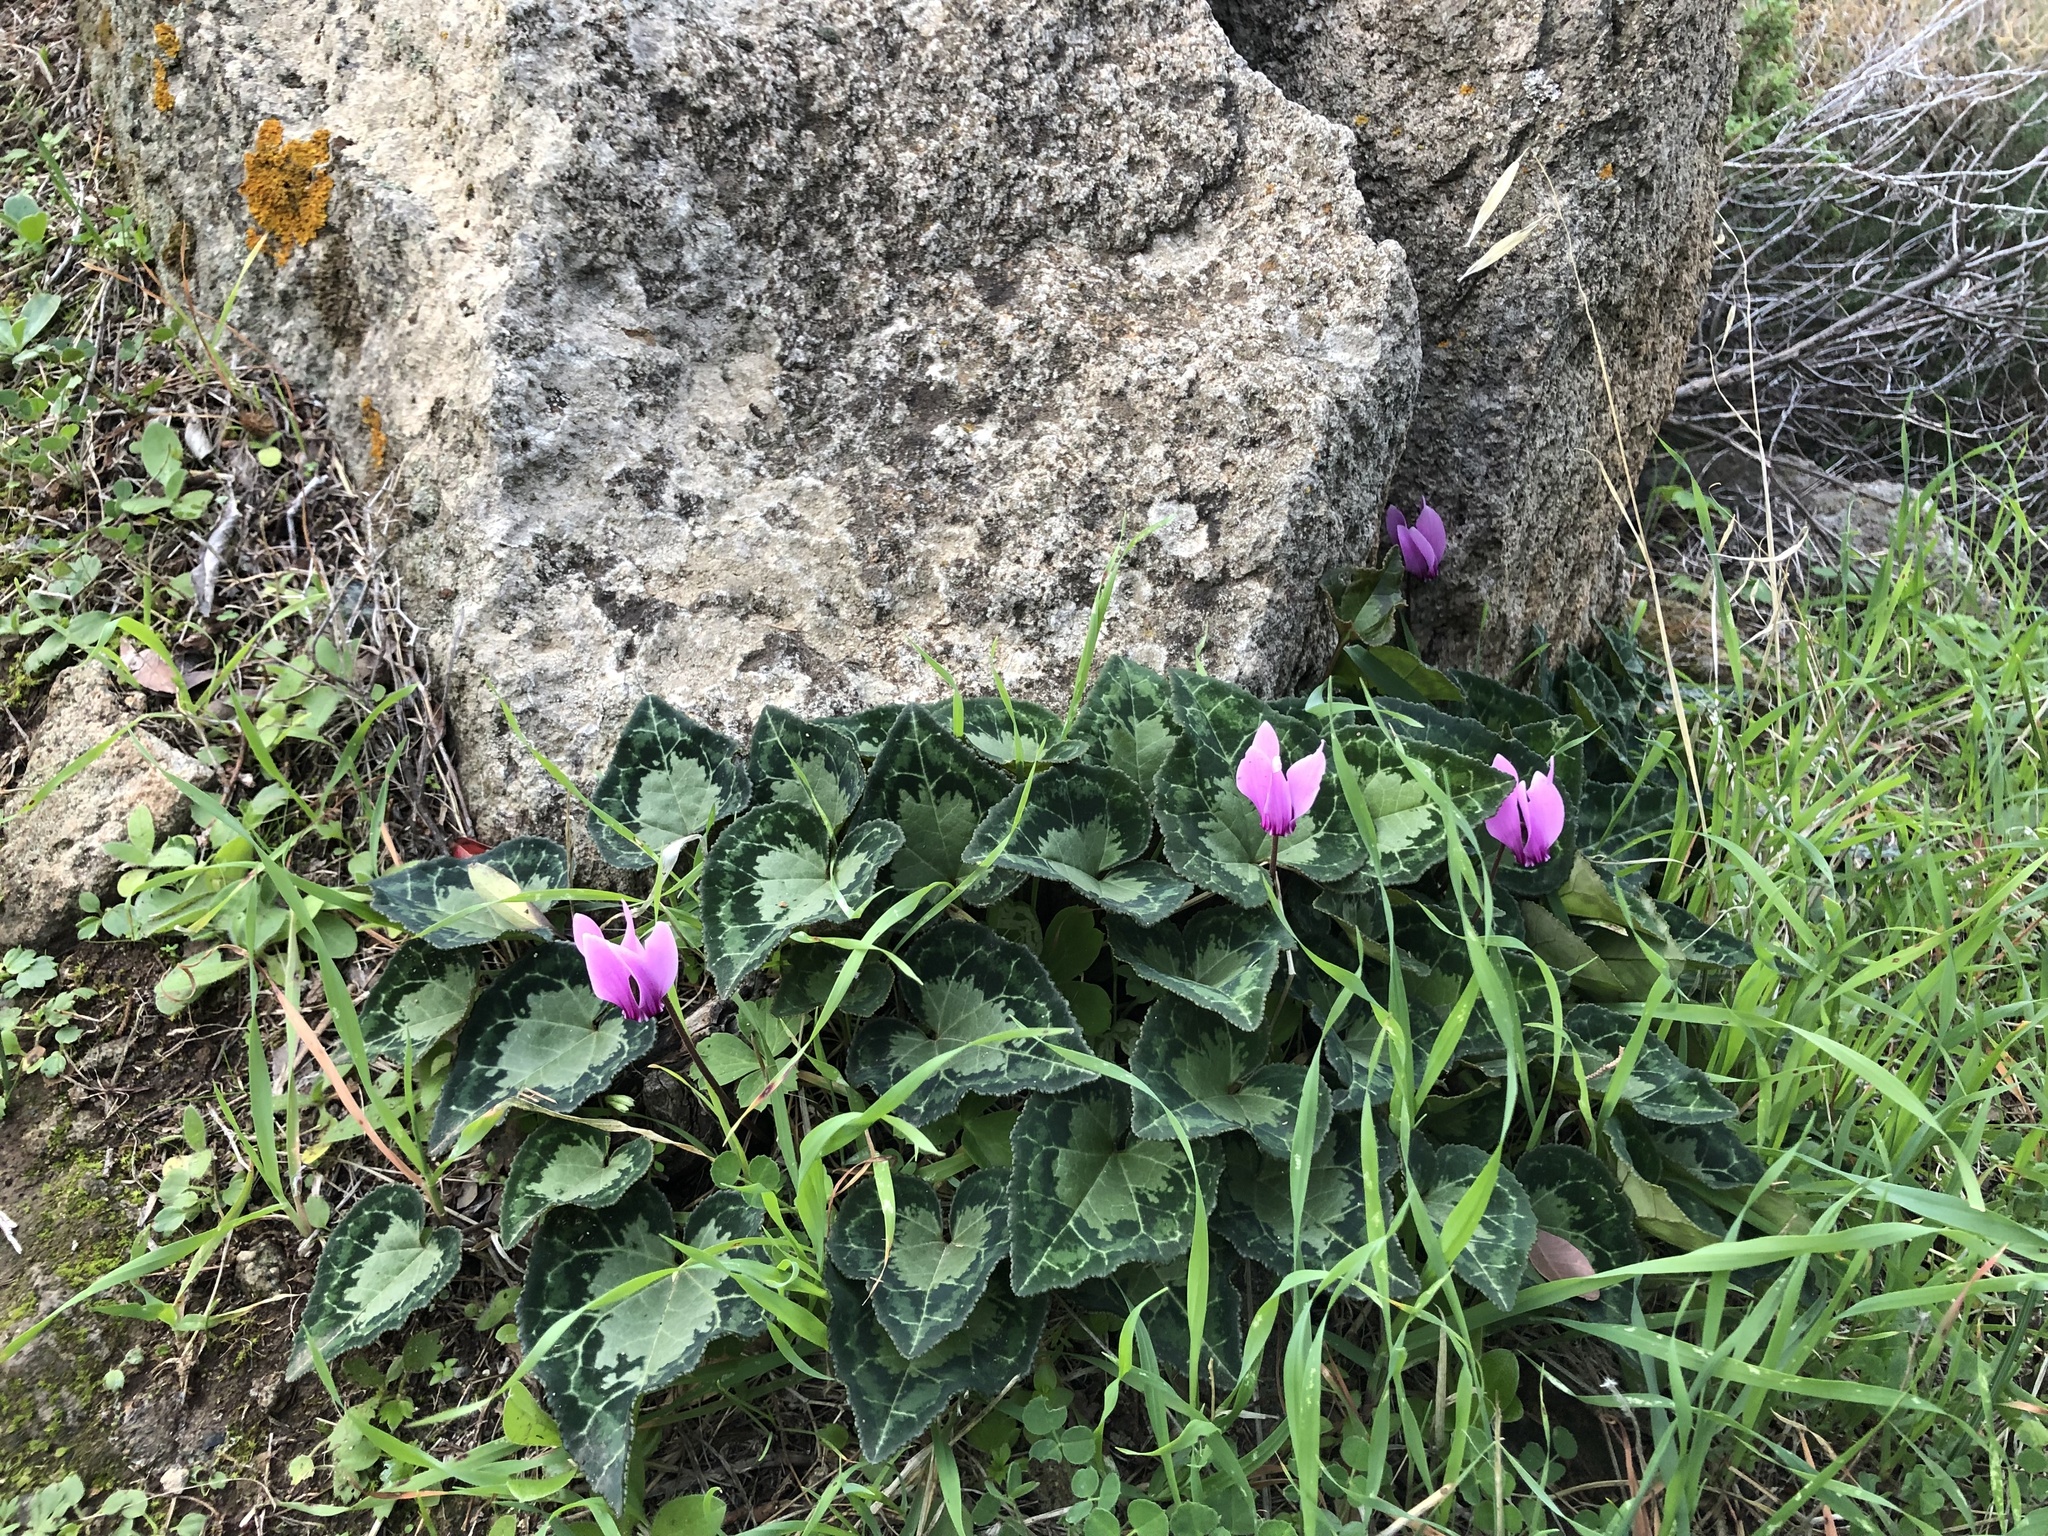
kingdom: Plantae
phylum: Tracheophyta
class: Magnoliopsida
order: Ericales
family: Primulaceae
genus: Cyclamen
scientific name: Cyclamen graecum
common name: Greek cyclamen
